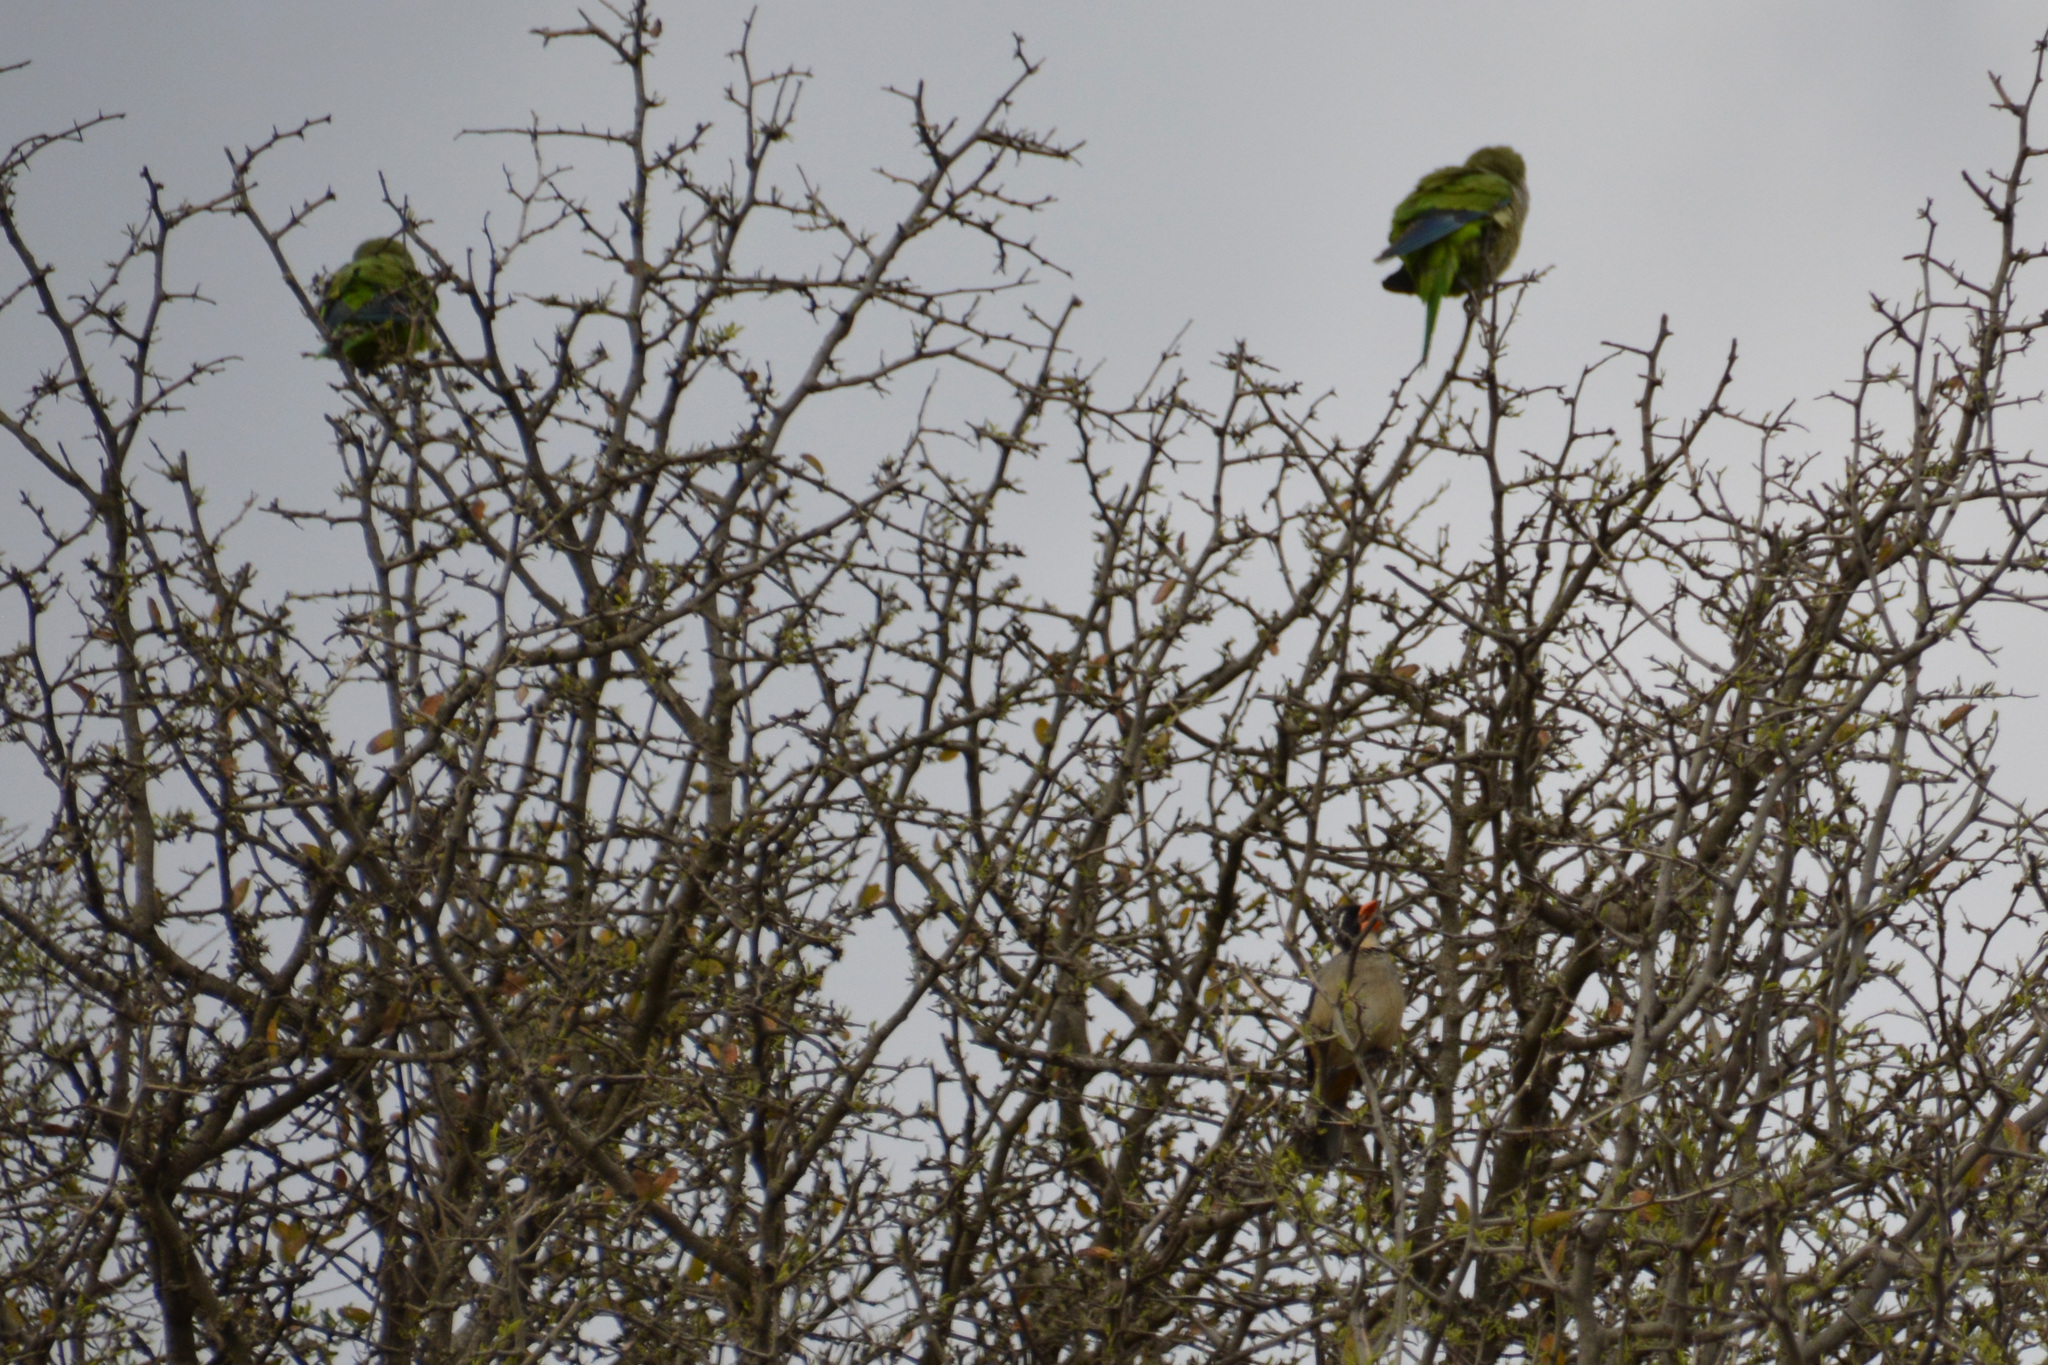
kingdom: Animalia
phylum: Chordata
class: Aves
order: Passeriformes
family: Thraupidae
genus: Saltator
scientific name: Saltator aurantiirostris
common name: Golden-billed saltator
